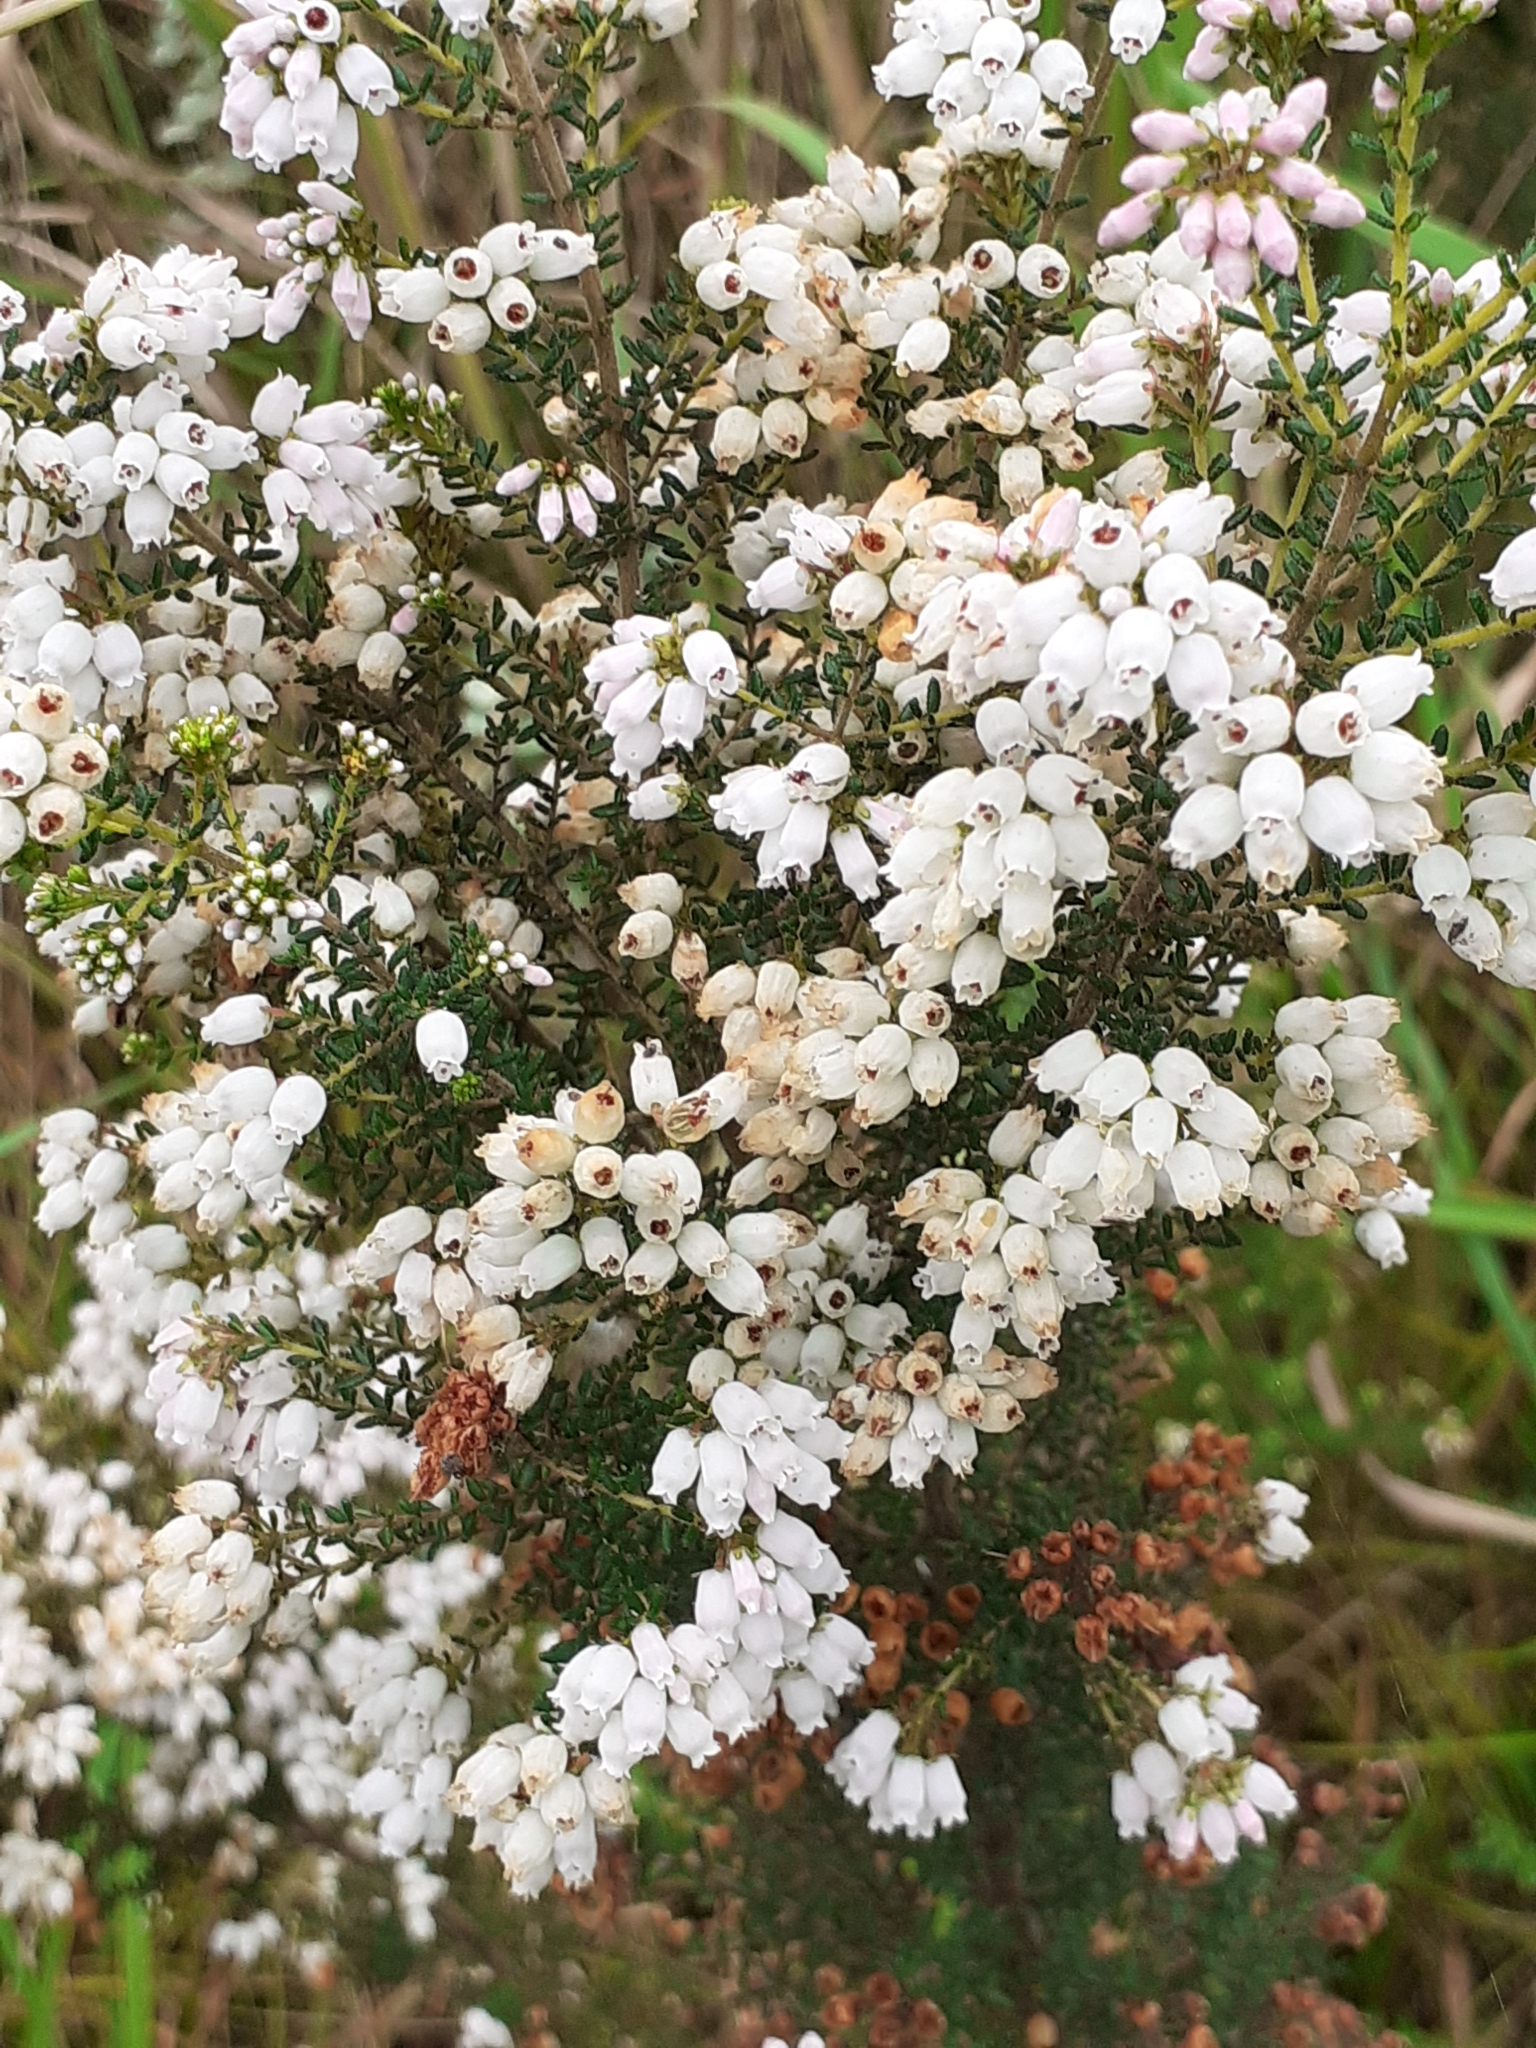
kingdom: Plantae
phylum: Tracheophyta
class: Magnoliopsida
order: Ericales
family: Ericaceae
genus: Erica
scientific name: Erica scabriuscula
